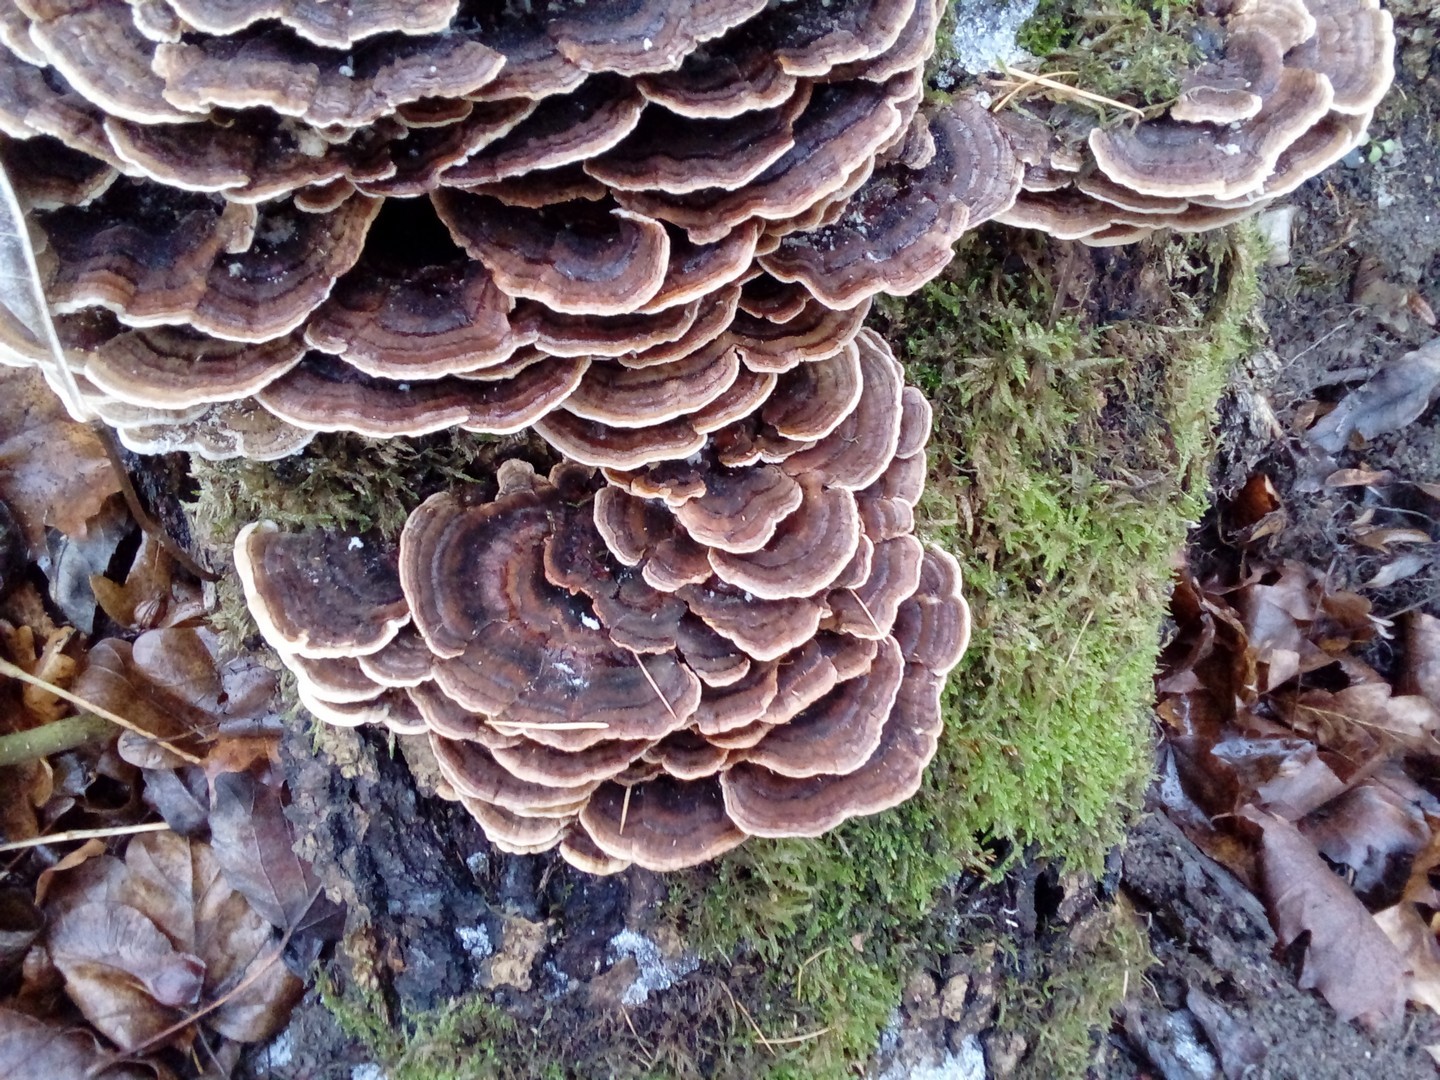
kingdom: Fungi
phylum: Basidiomycota
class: Agaricomycetes
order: Polyporales
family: Polyporaceae
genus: Trametes
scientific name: Trametes versicolor
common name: Turkeytail
